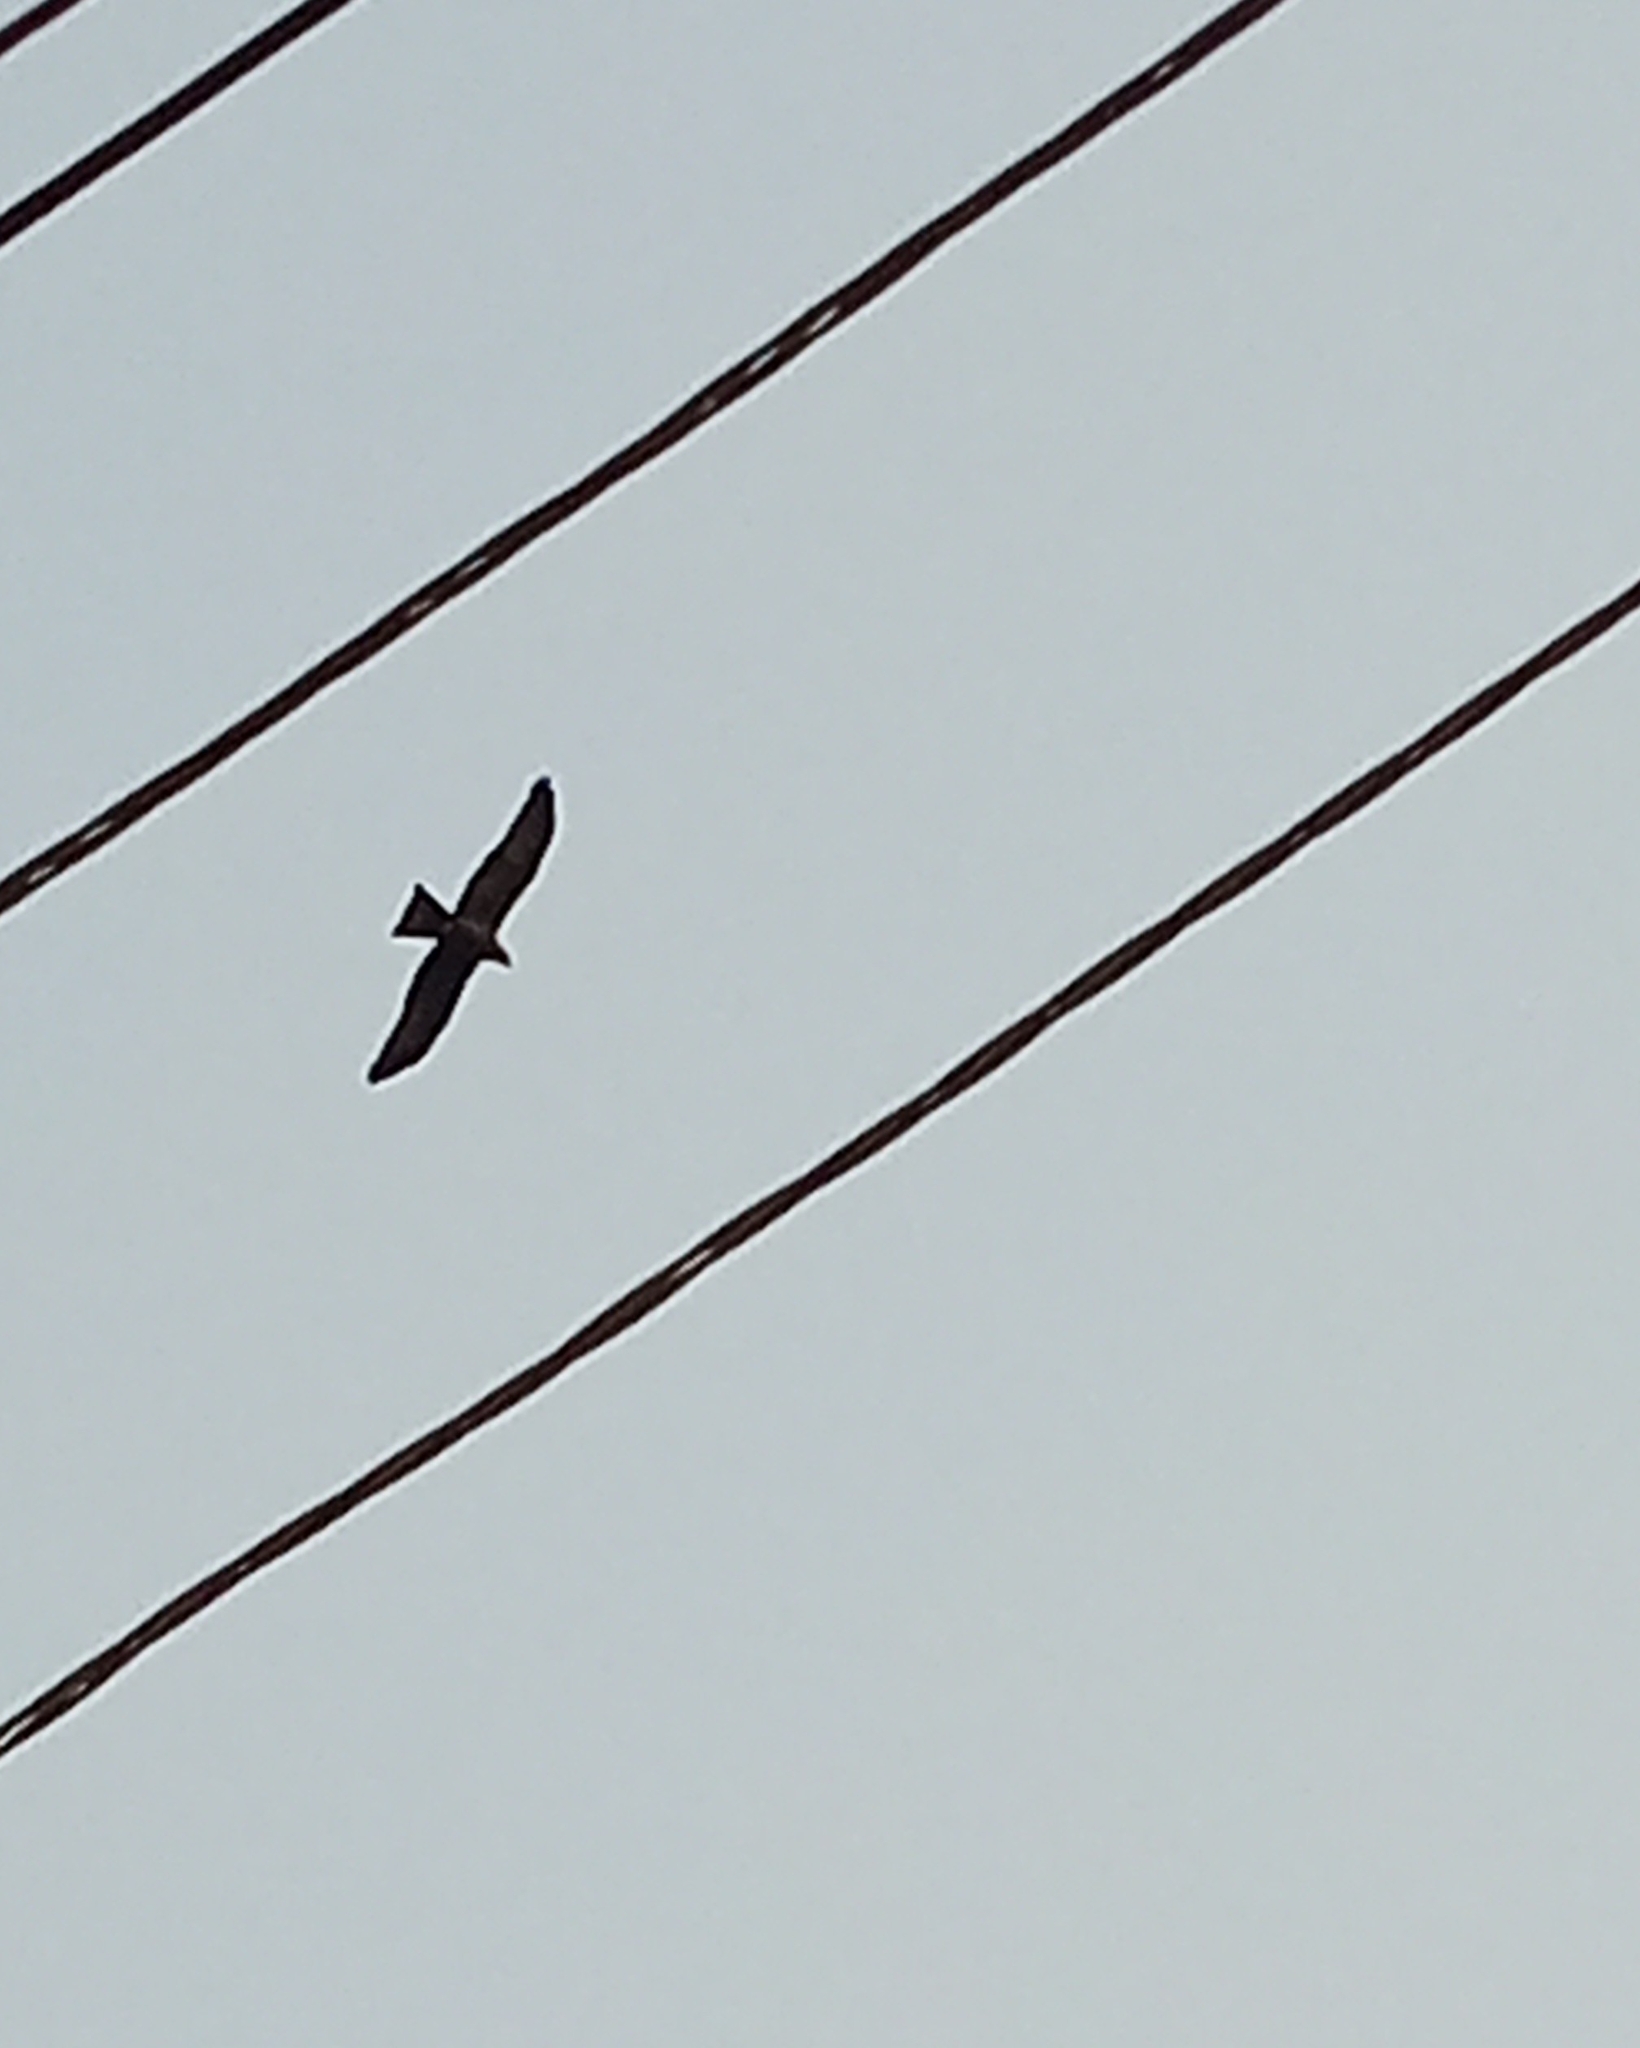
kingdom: Animalia
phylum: Chordata
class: Aves
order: Accipitriformes
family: Accipitridae
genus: Milvus
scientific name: Milvus migrans
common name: Black kite
